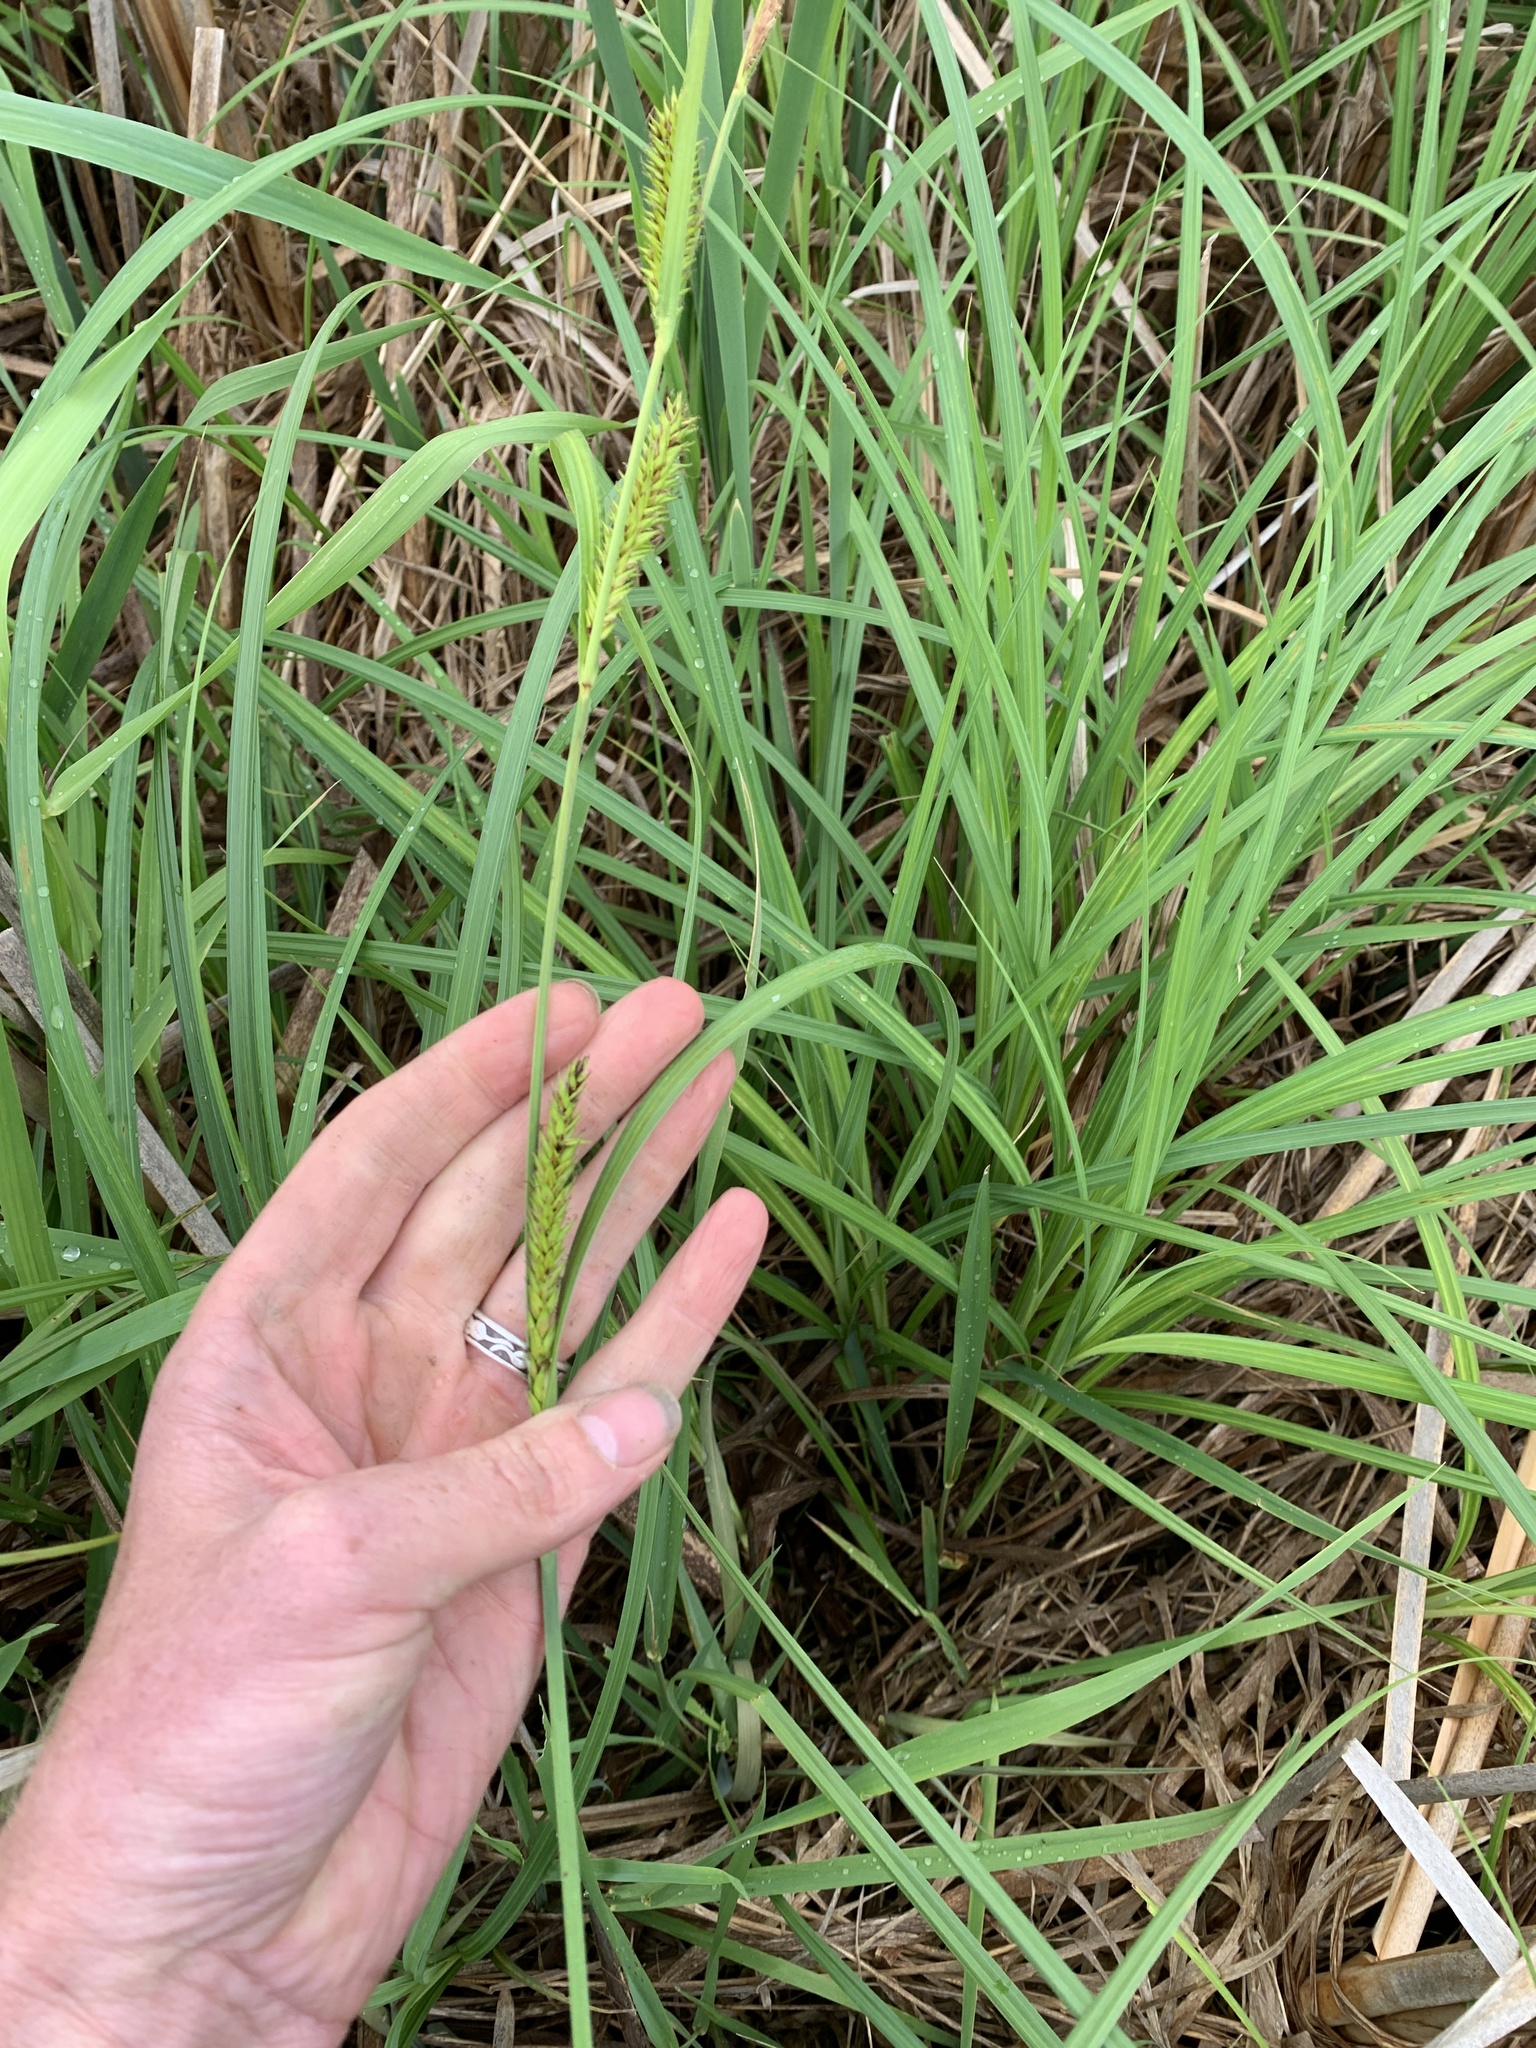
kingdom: Plantae
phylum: Tracheophyta
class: Liliopsida
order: Poales
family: Cyperaceae
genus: Carex
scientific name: Carex lacustris
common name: Common lake sedge
